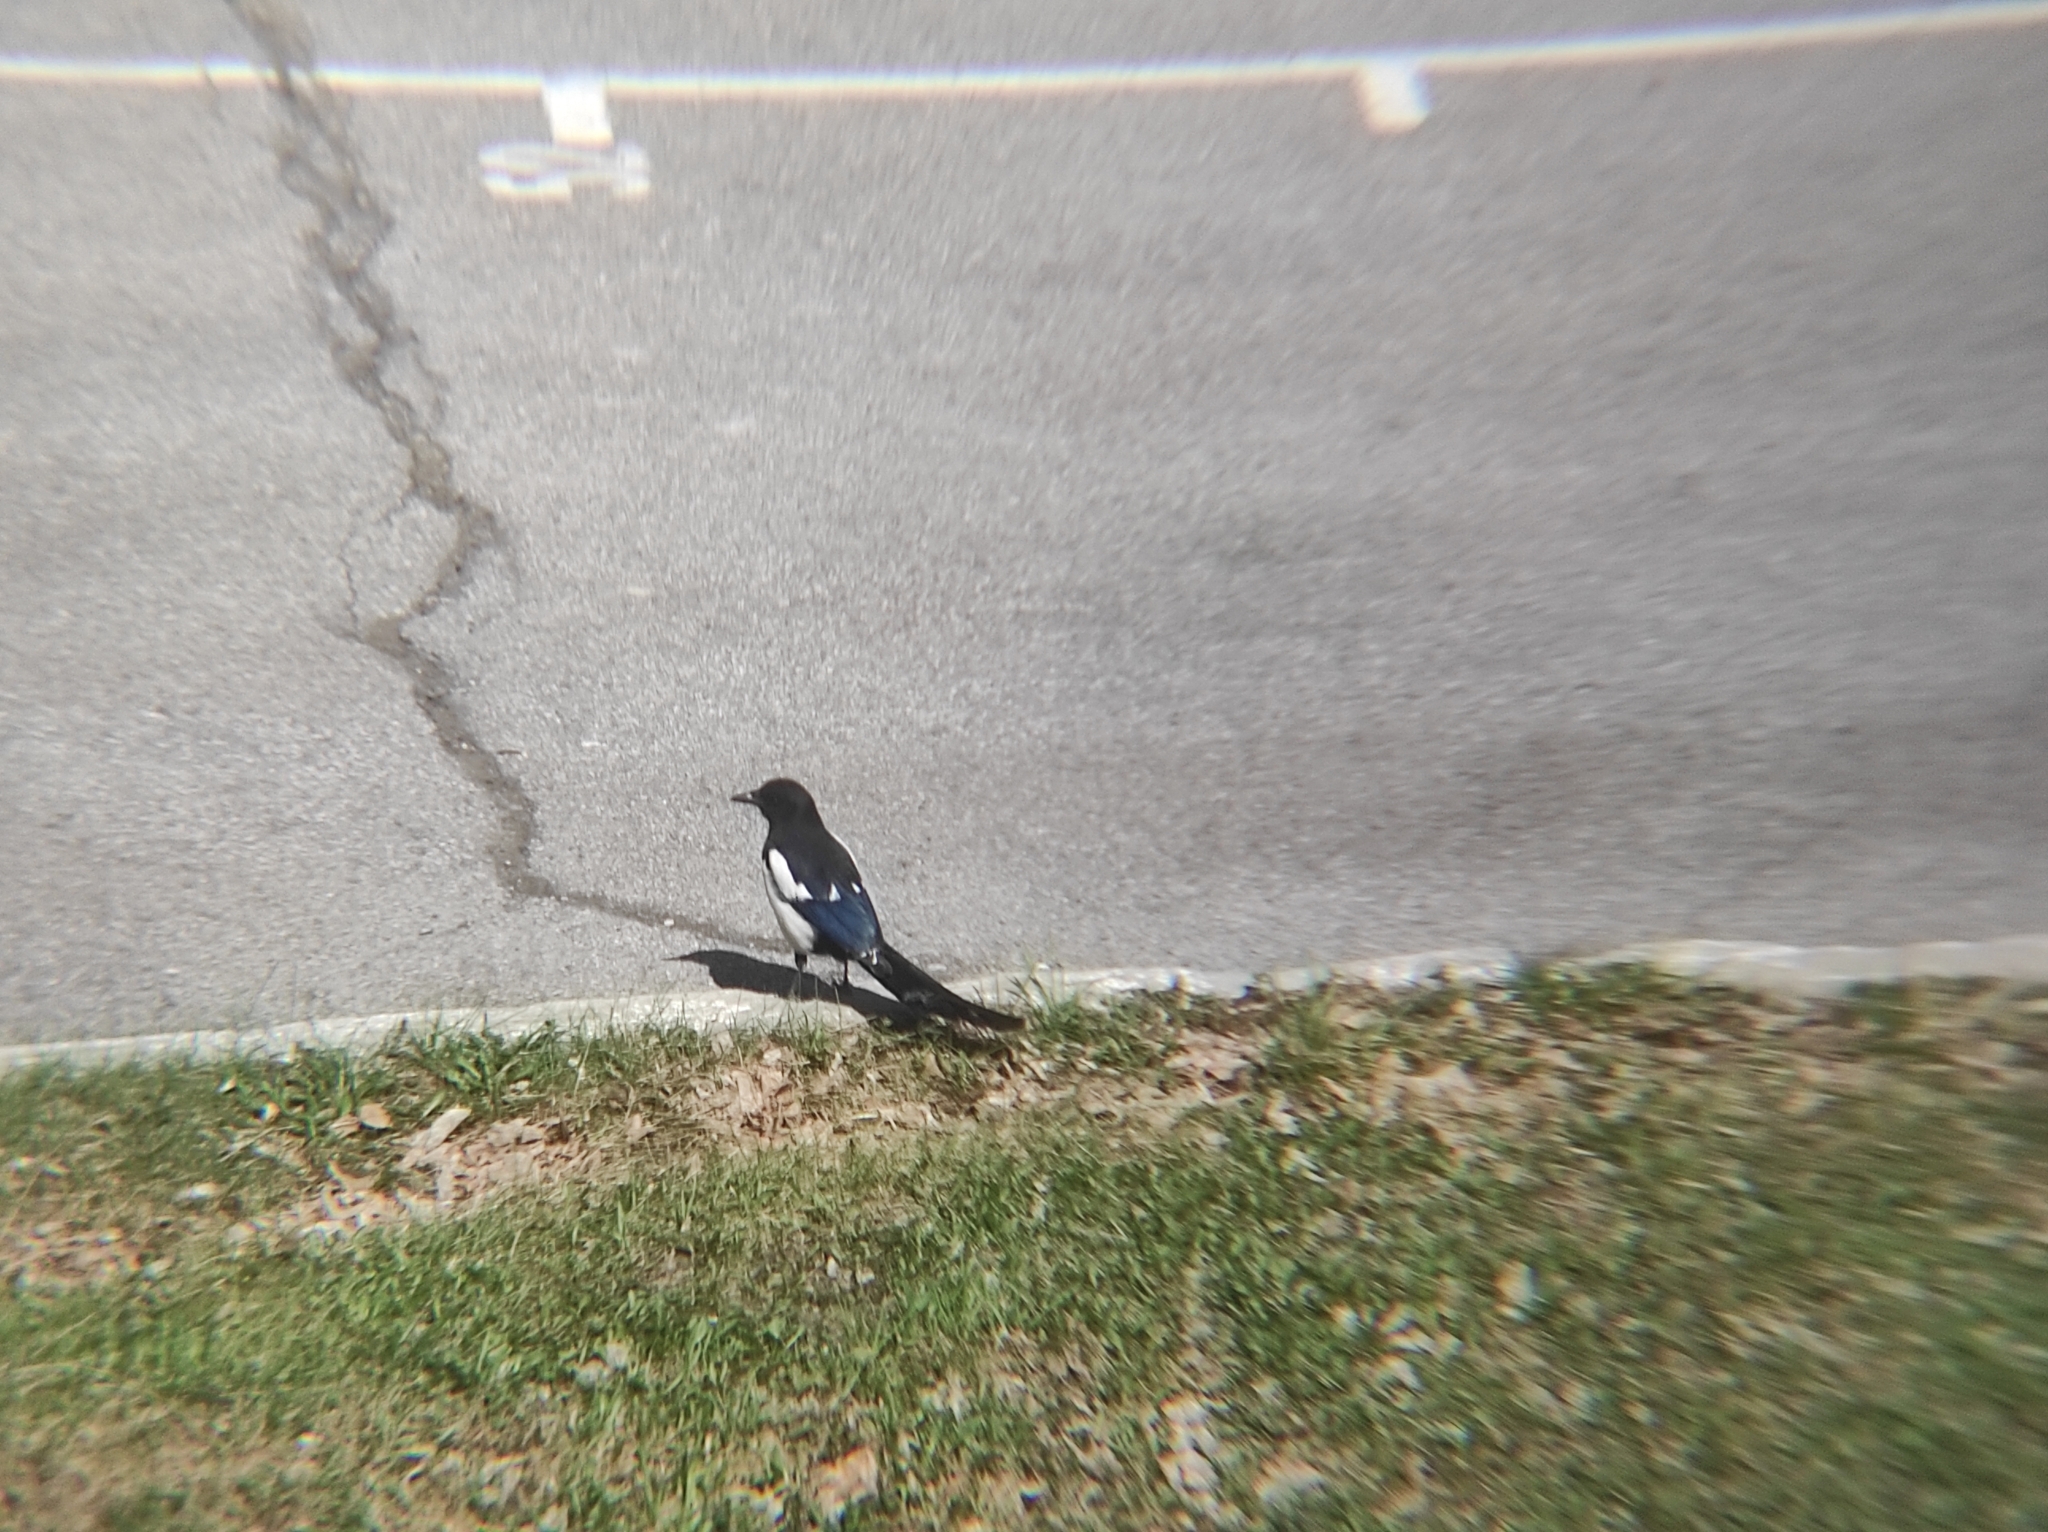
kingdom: Animalia
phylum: Chordata
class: Aves
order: Passeriformes
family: Corvidae
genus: Pica
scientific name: Pica pica
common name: Eurasian magpie
